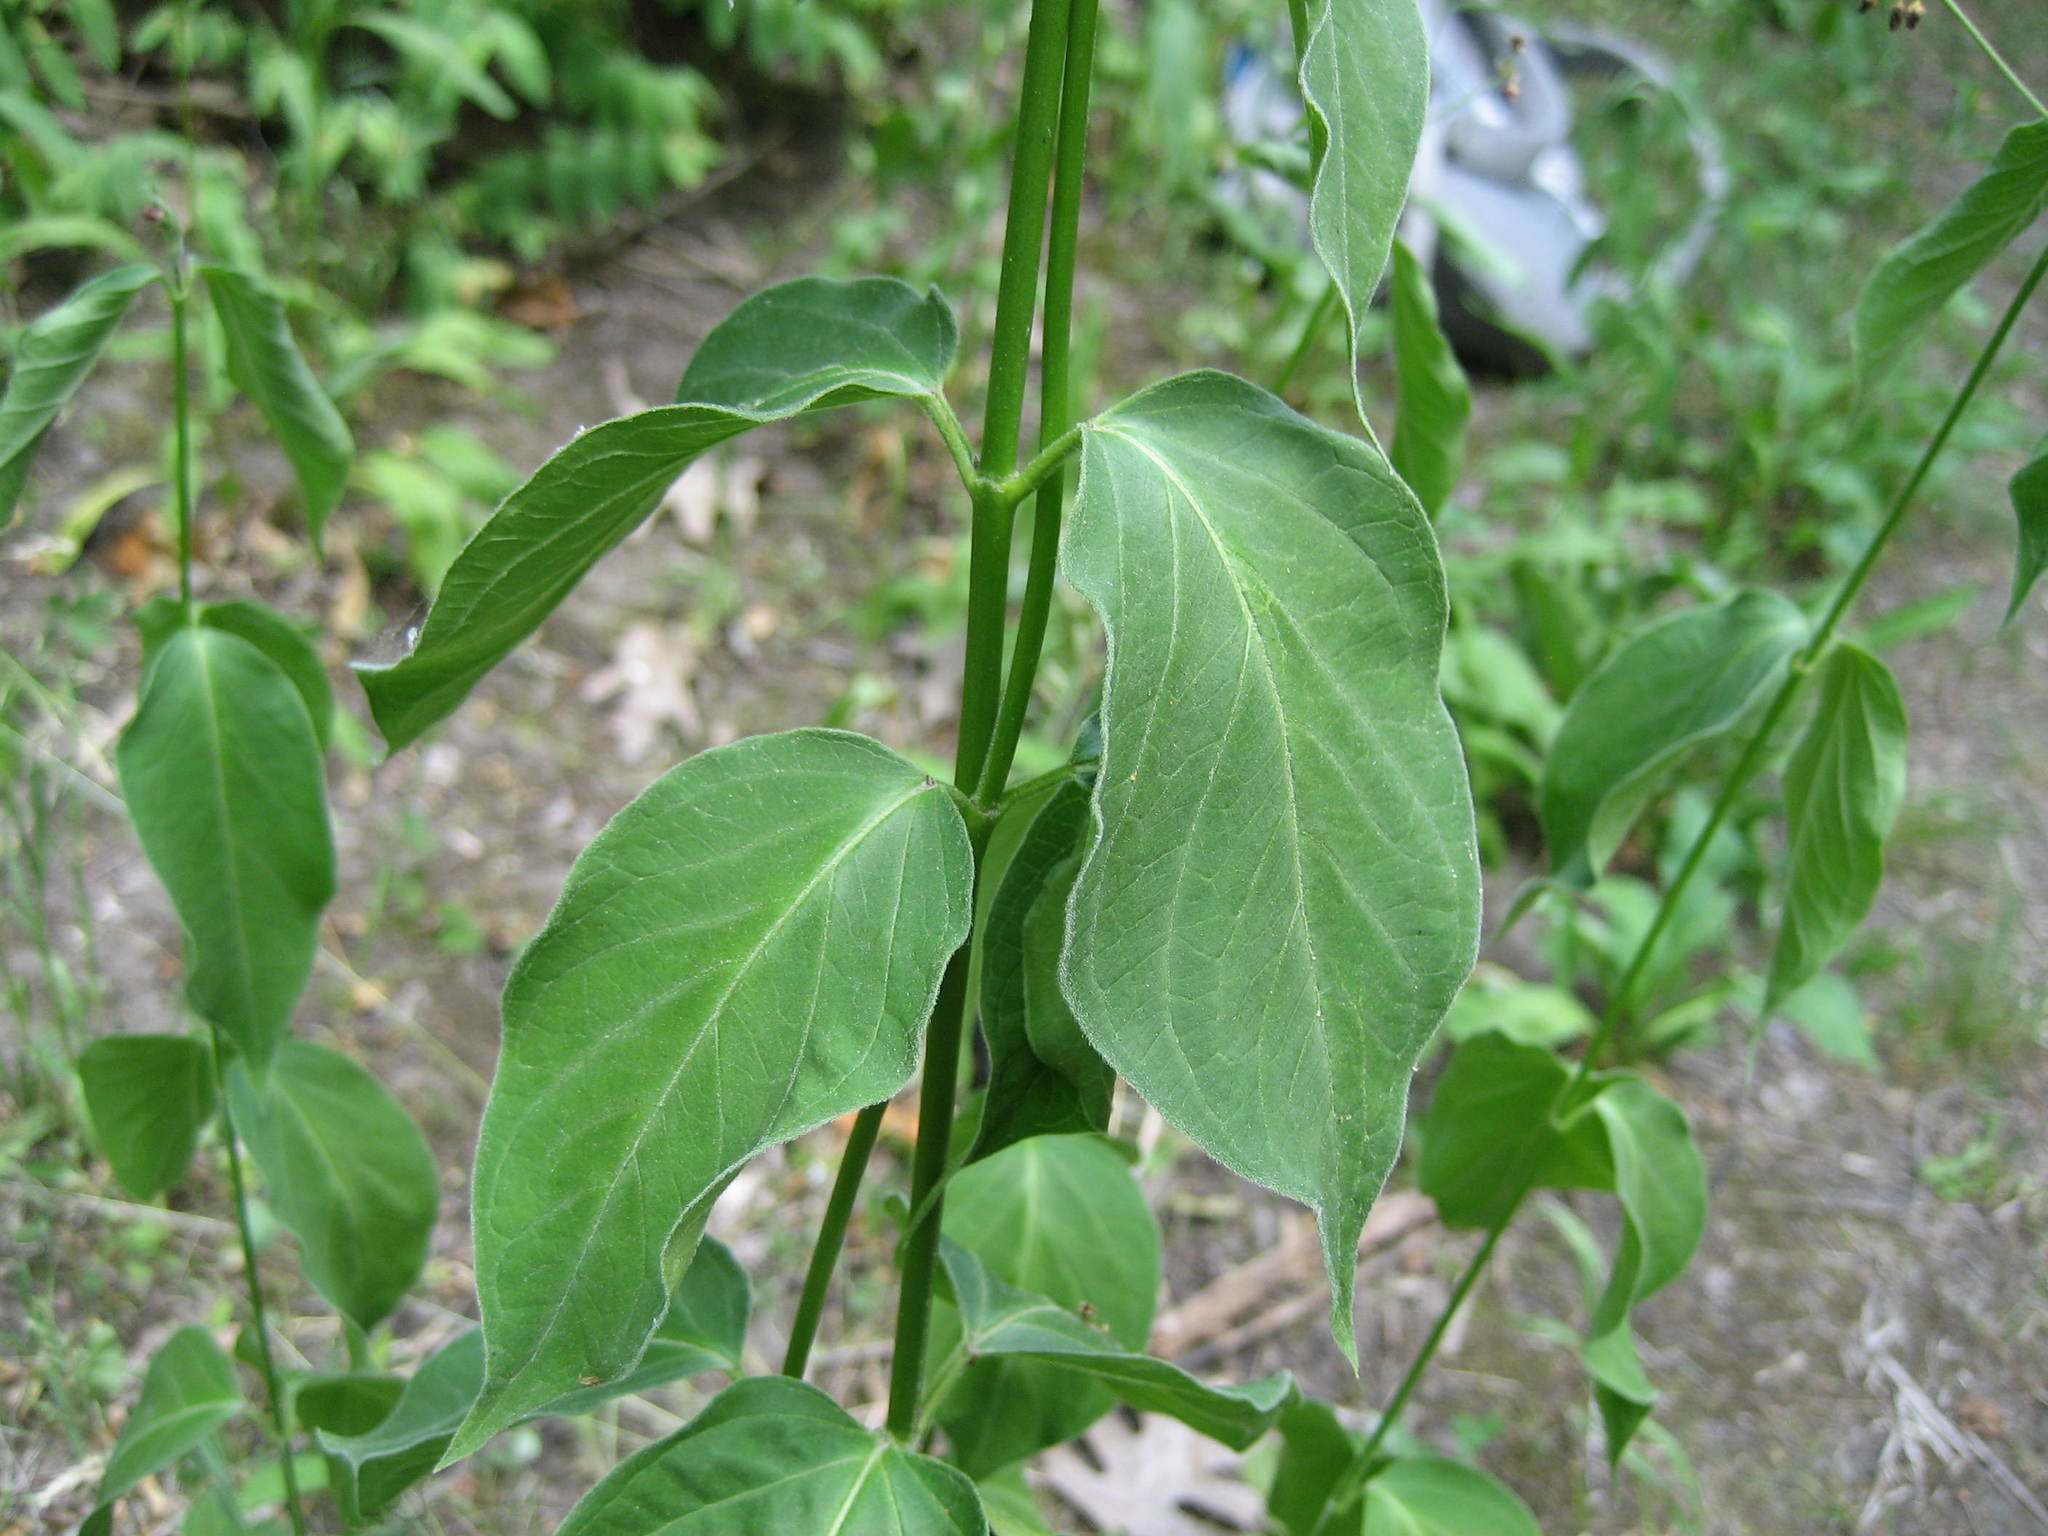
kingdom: Plantae
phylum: Tracheophyta
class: Magnoliopsida
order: Gentianales
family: Apocynaceae
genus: Vincetoxicum
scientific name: Vincetoxicum rossicum
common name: Dog-strangling vine
